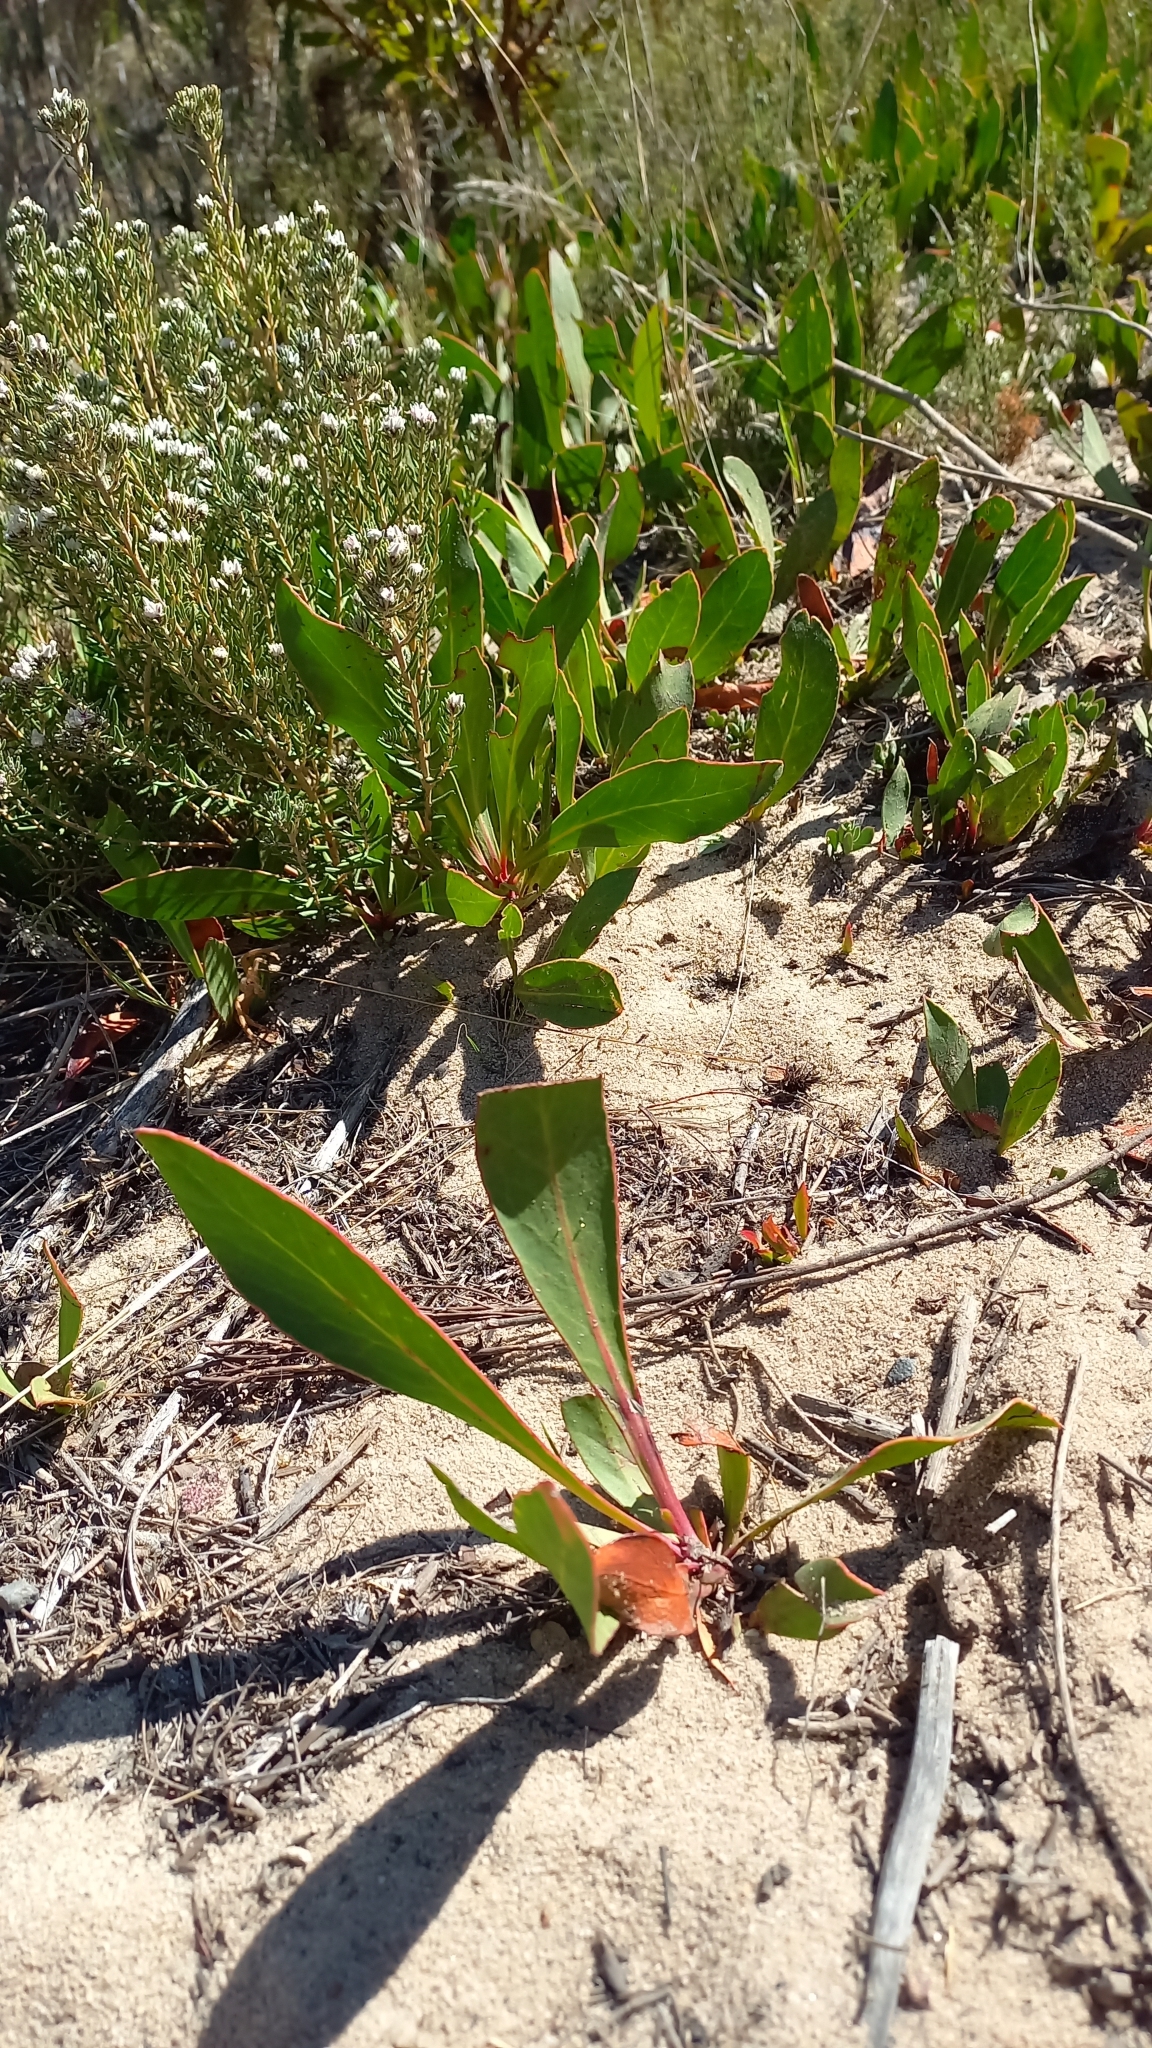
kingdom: Plantae
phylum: Tracheophyta
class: Magnoliopsida
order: Proteales
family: Proteaceae
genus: Protea
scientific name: Protea acaulos
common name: Common ground sugarbush
